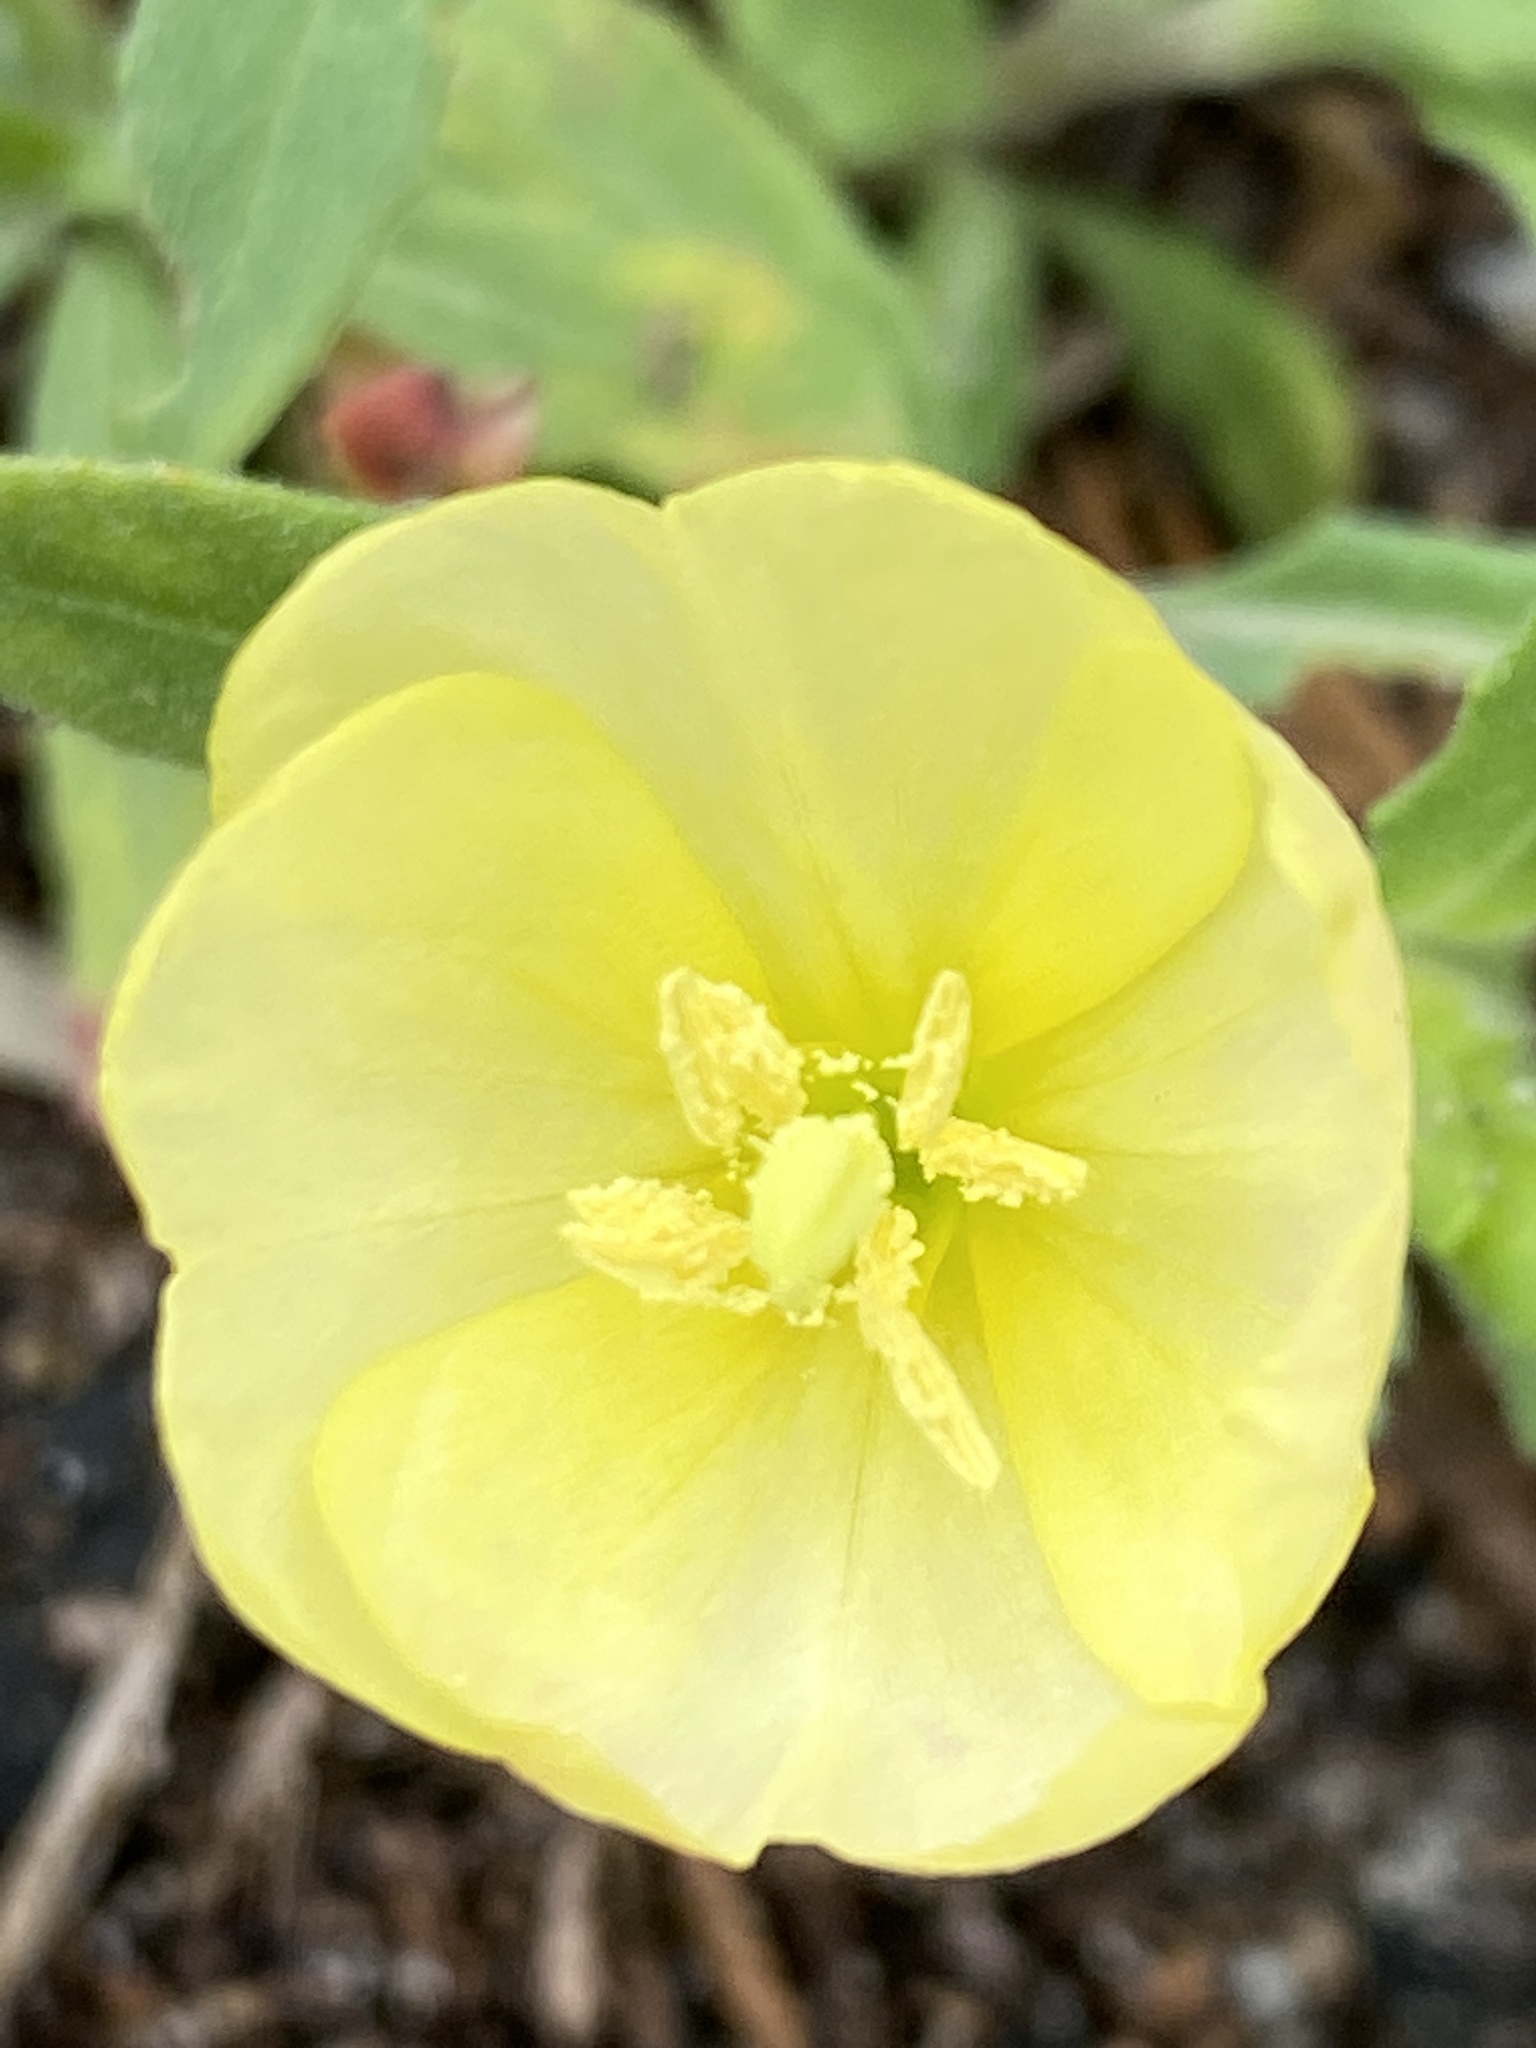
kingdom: Plantae
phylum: Tracheophyta
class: Magnoliopsida
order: Myrtales
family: Onagraceae
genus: Oenothera
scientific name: Oenothera humifusa
